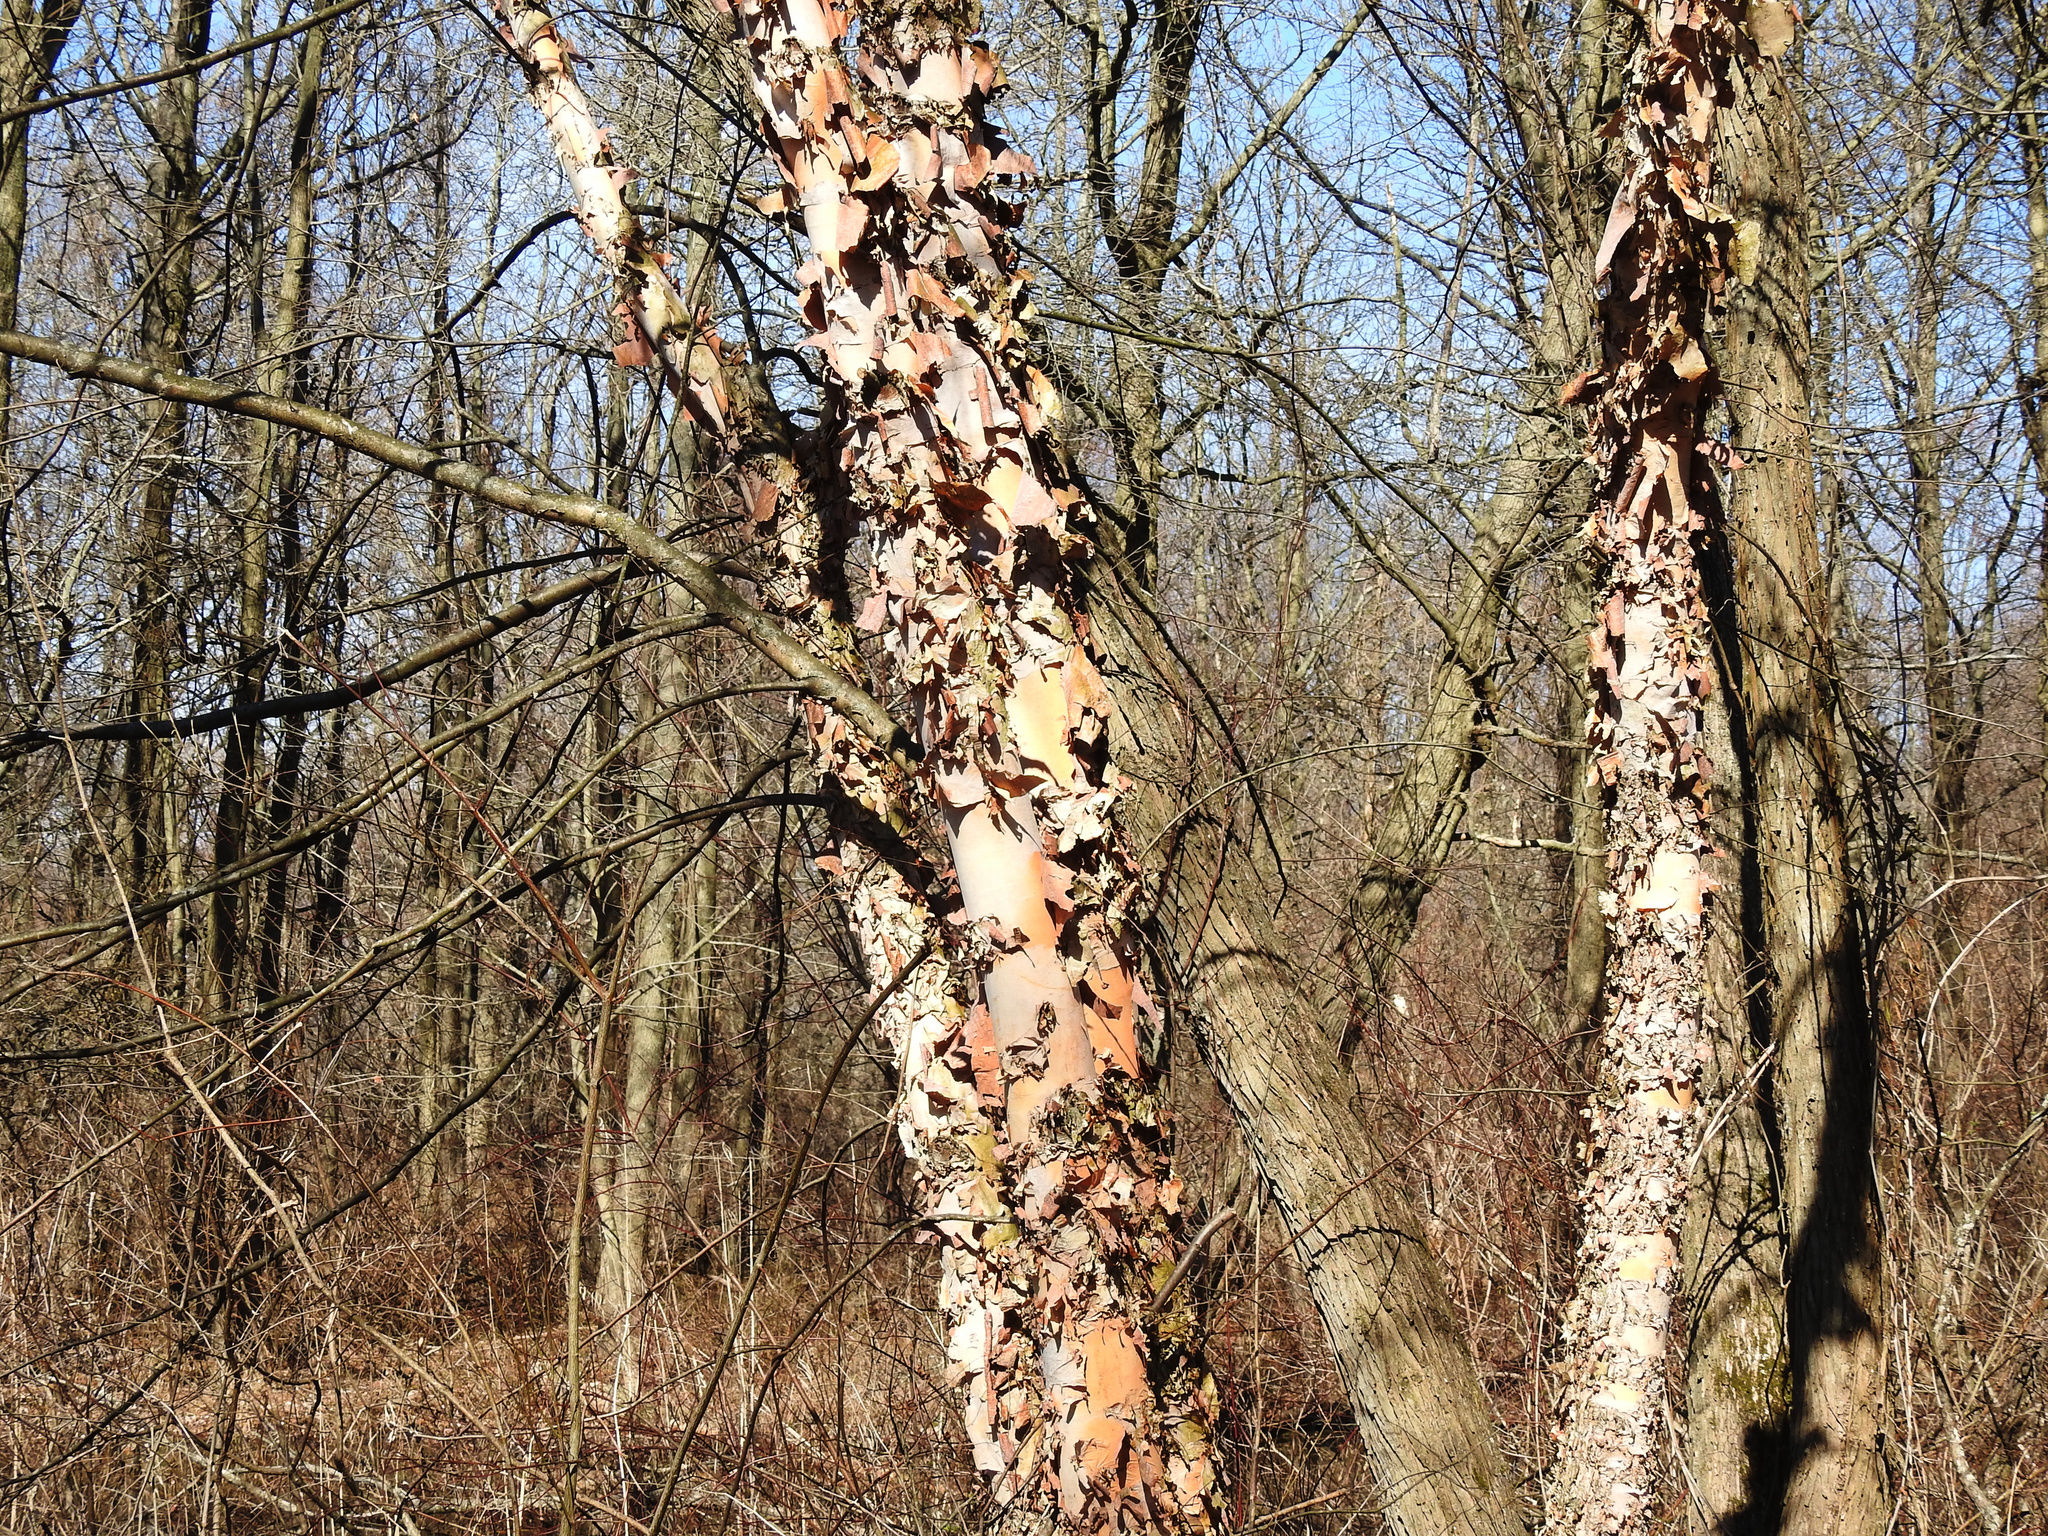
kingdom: Plantae
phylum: Tracheophyta
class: Magnoliopsida
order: Fagales
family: Betulaceae
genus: Betula
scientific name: Betula nigra
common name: Black birch
